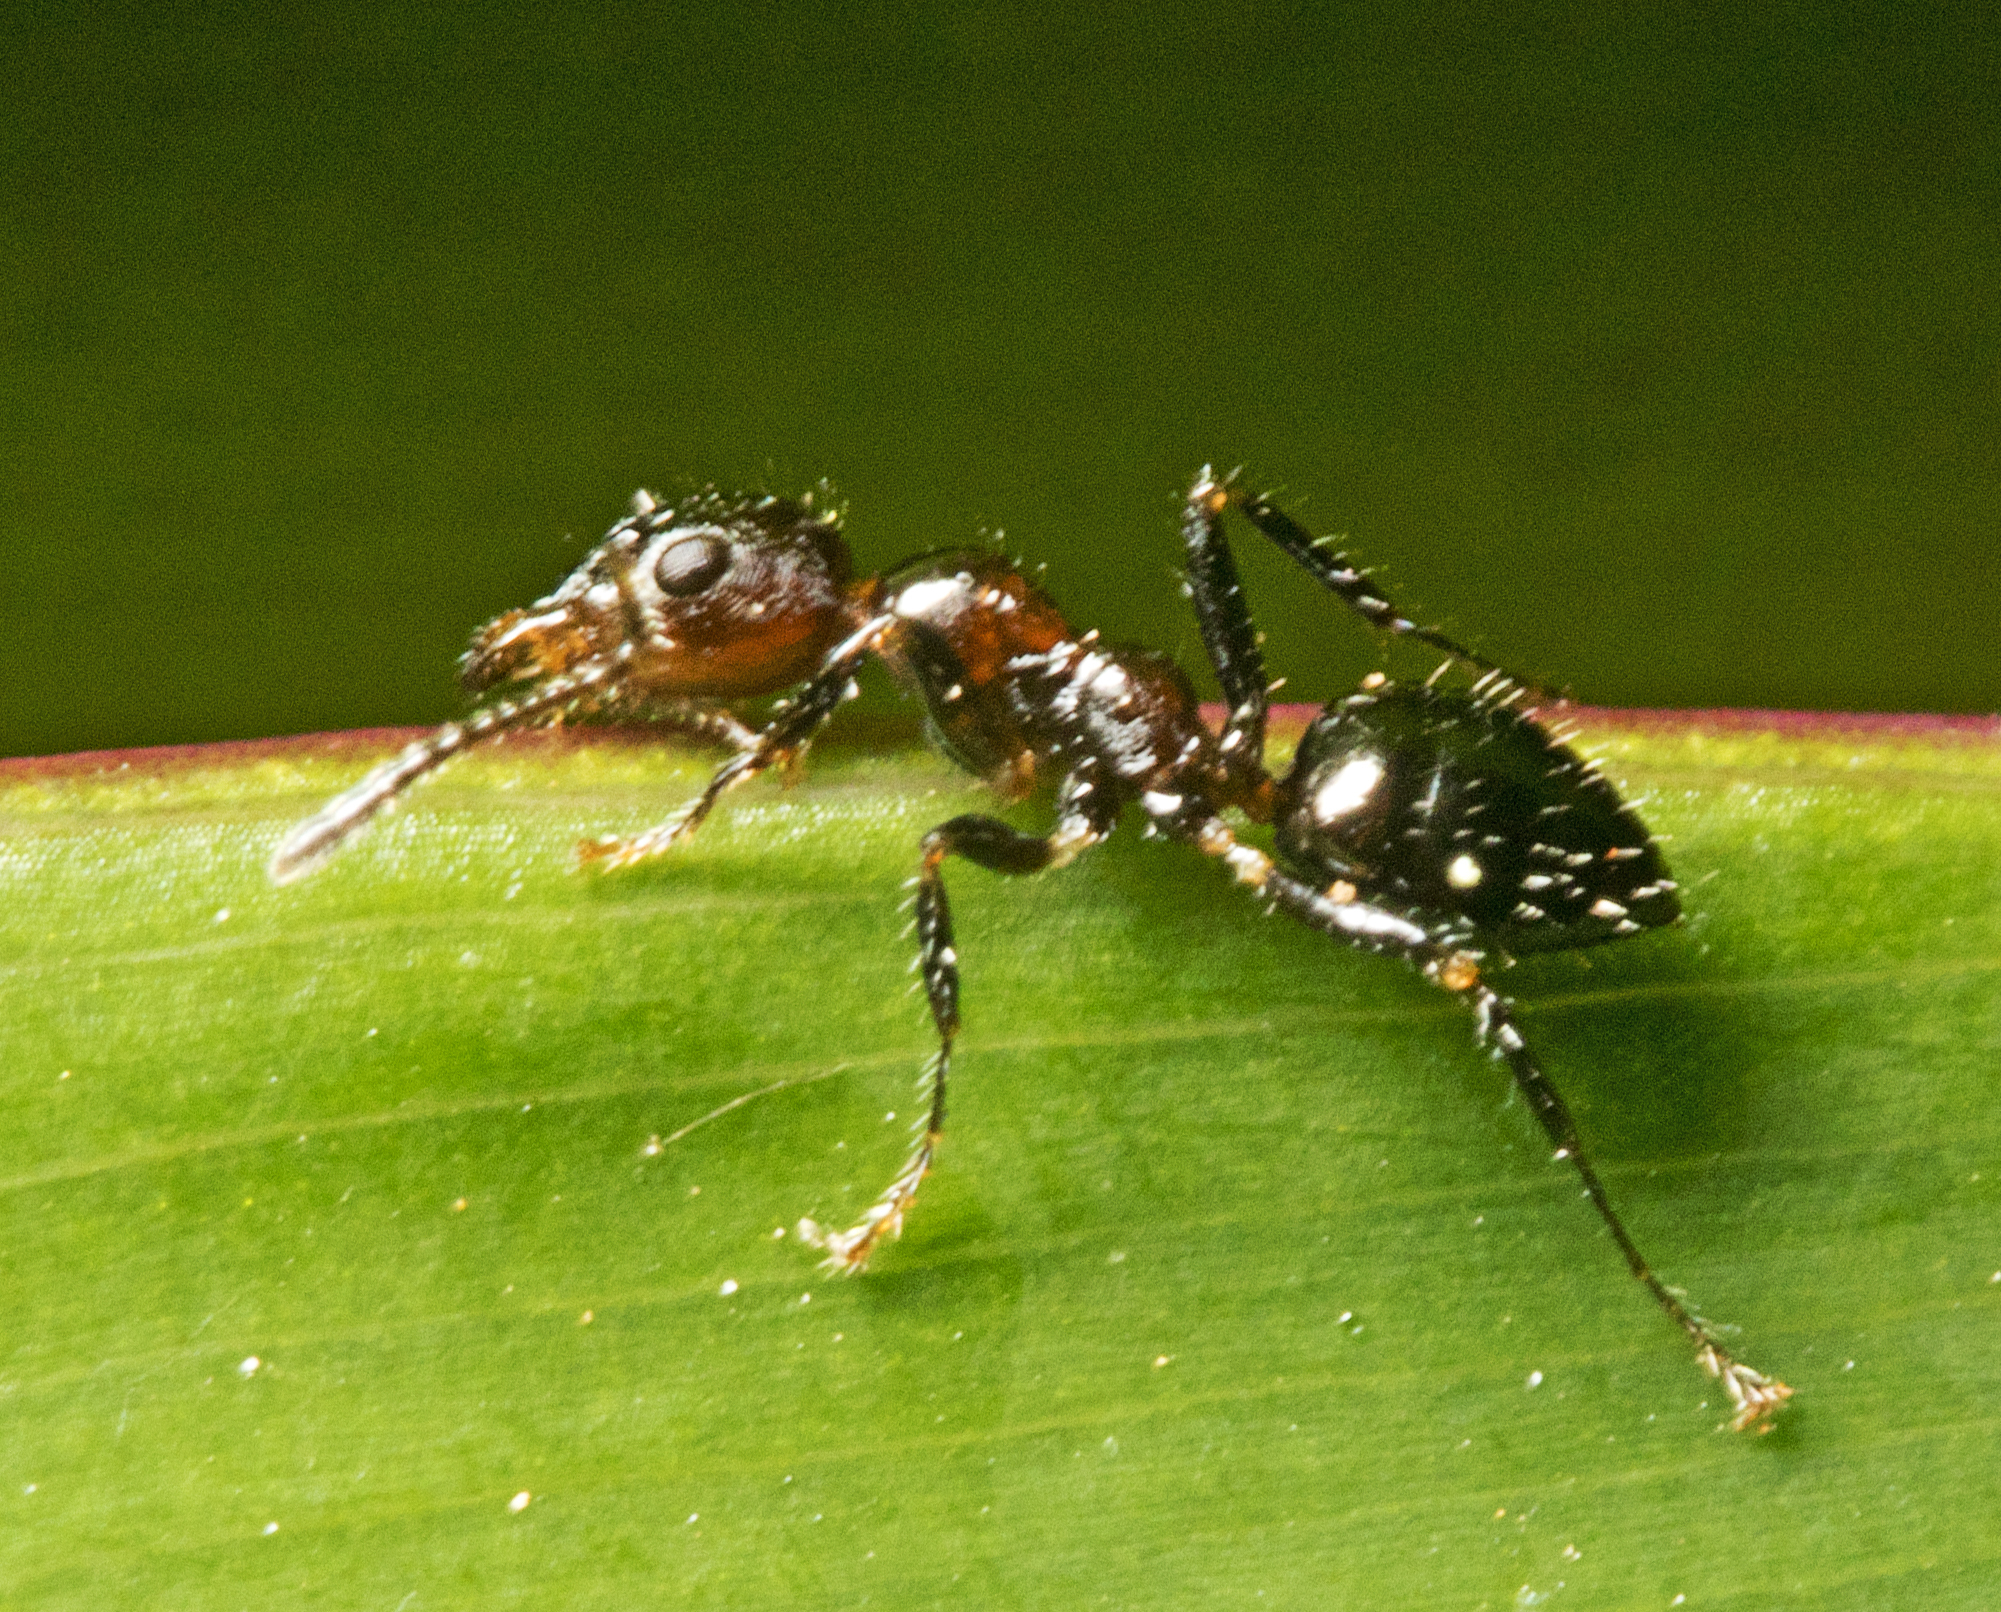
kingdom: Animalia
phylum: Arthropoda
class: Insecta
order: Hymenoptera
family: Formicidae
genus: Myrmecorhynchus
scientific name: Myrmecorhynchus emeryi
